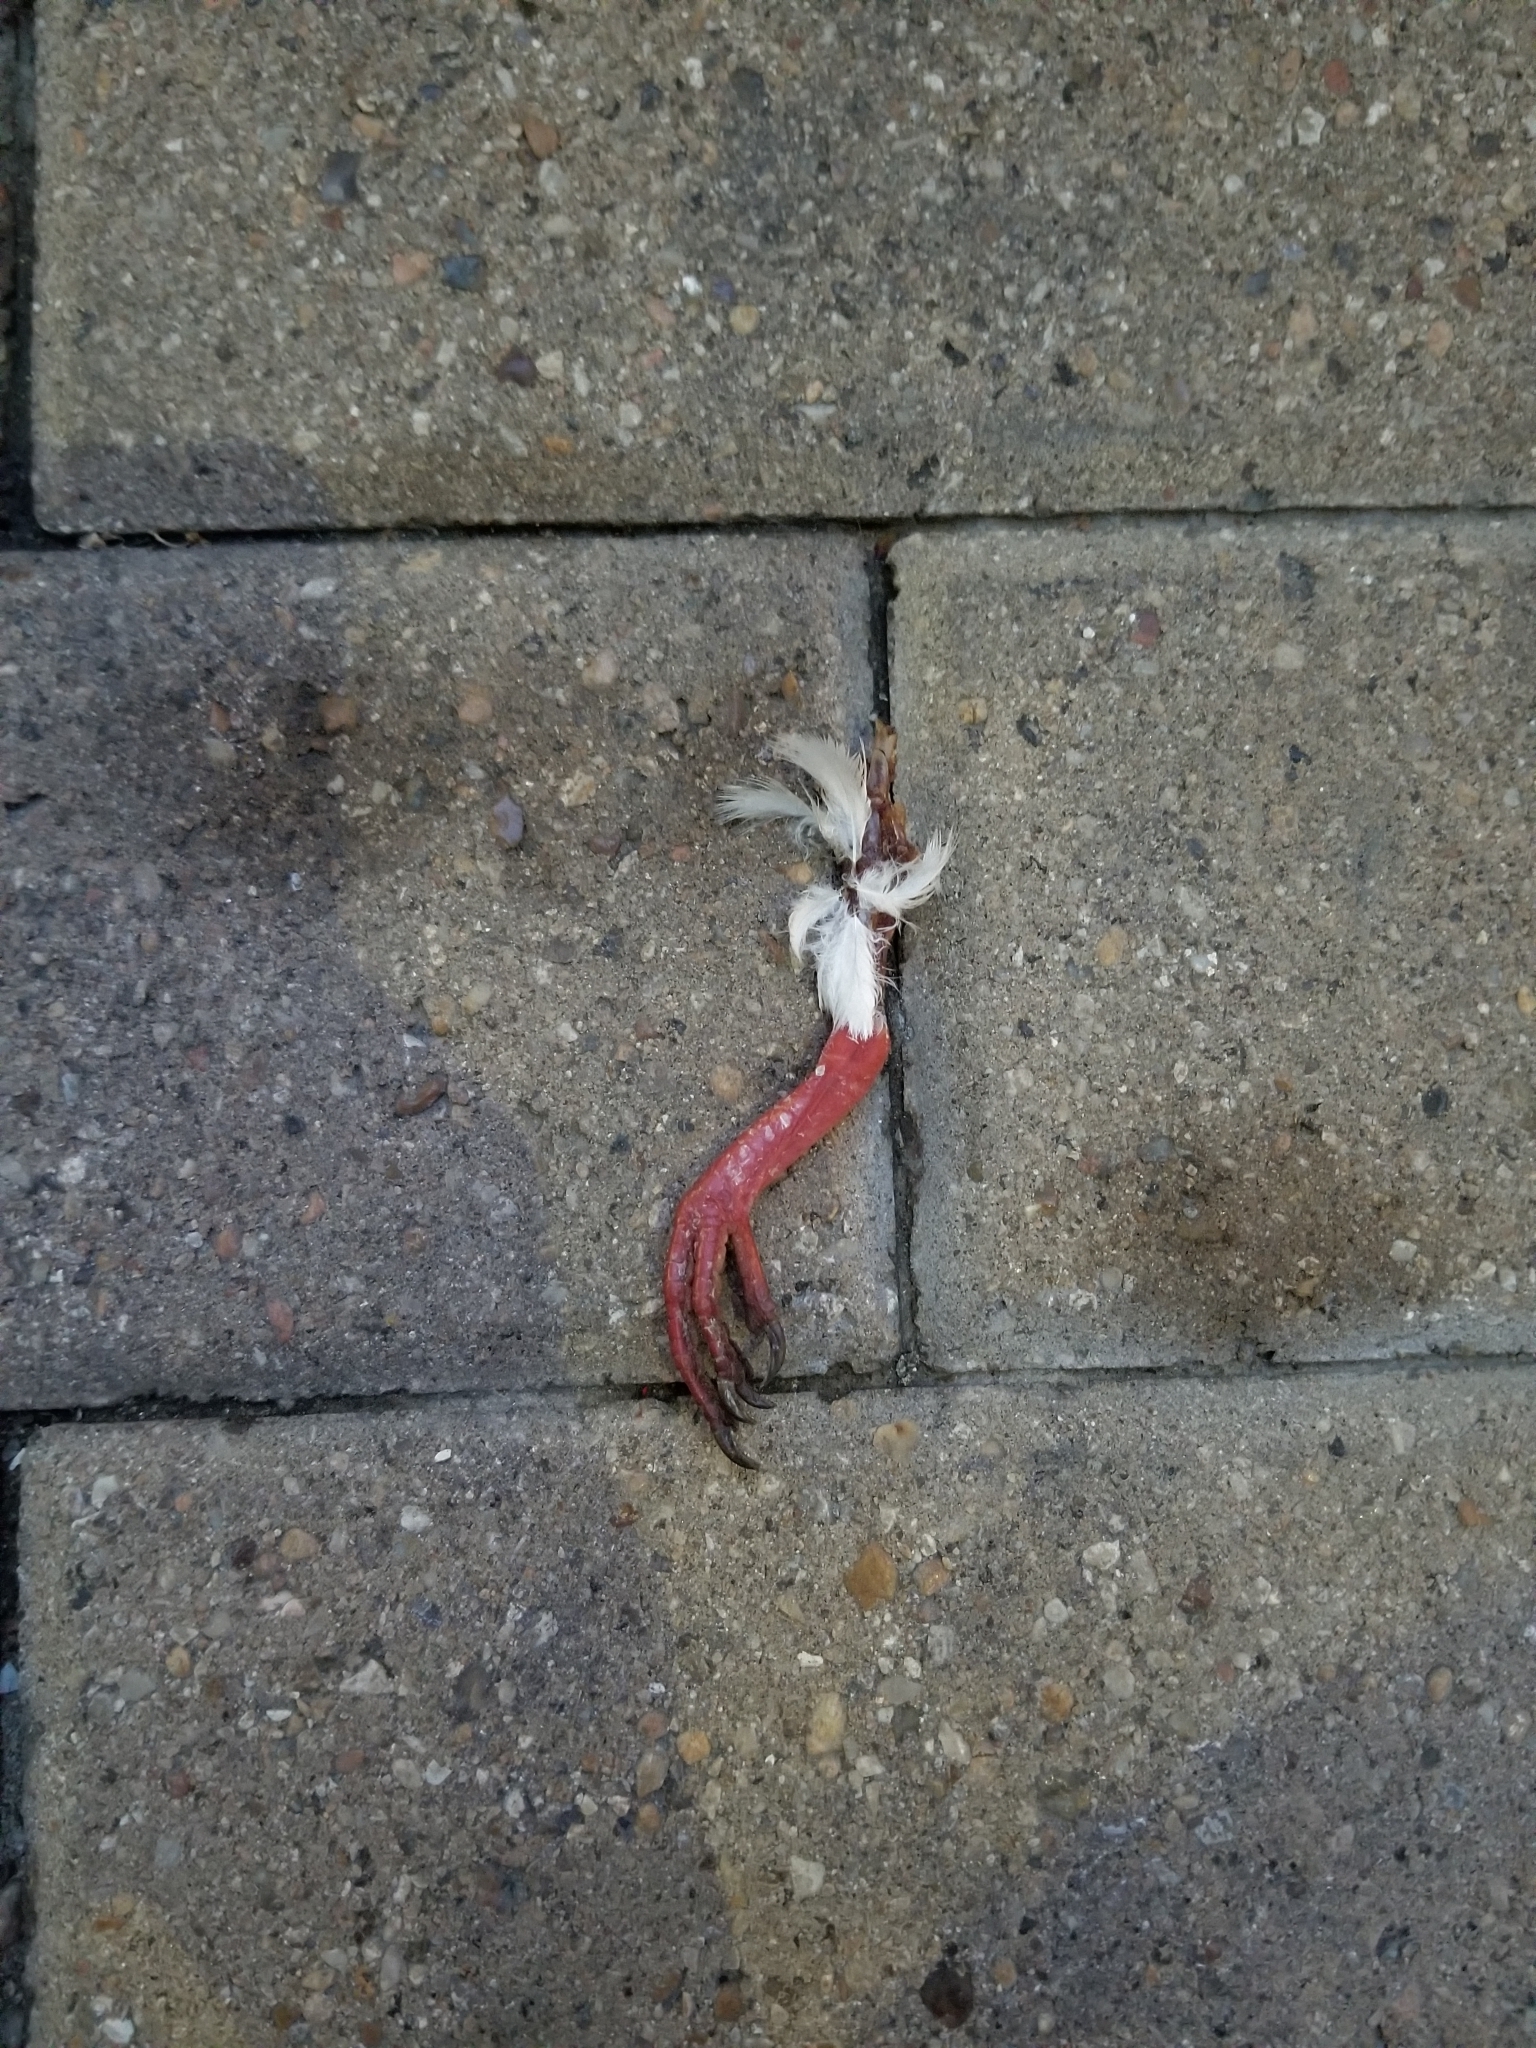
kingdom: Animalia
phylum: Chordata
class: Aves
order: Columbiformes
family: Columbidae
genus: Columba
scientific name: Columba livia
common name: Rock pigeon
